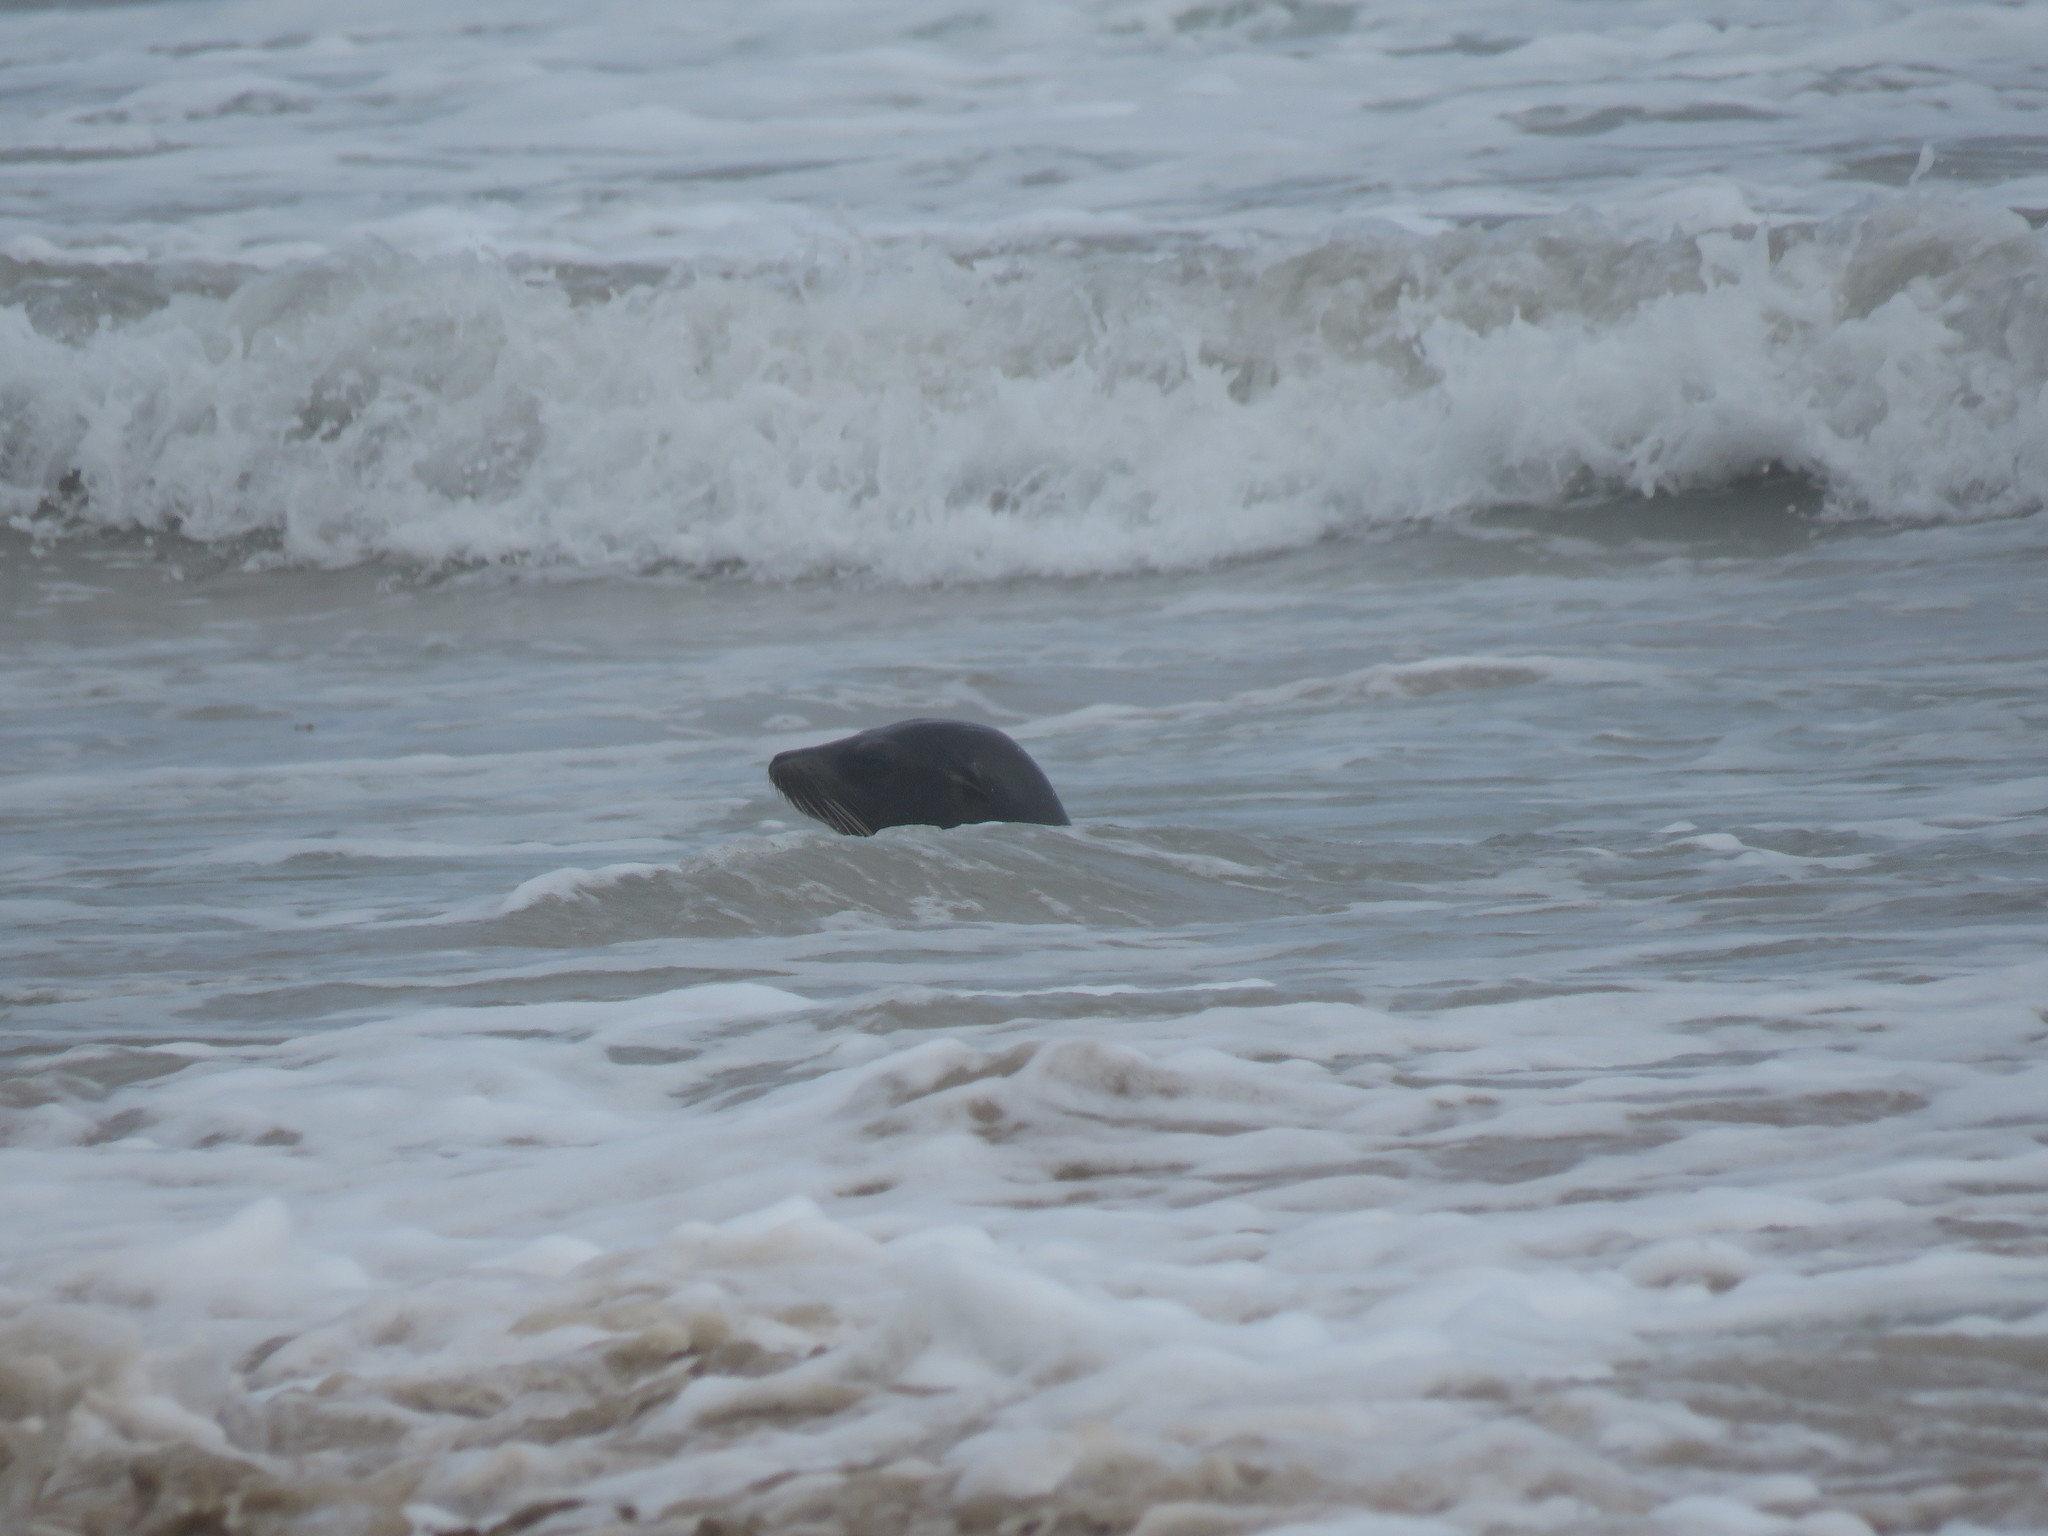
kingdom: Animalia
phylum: Chordata
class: Mammalia
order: Carnivora
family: Otariidae
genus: Zalophus
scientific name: Zalophus wollebaeki
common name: Galapagos sea lion
